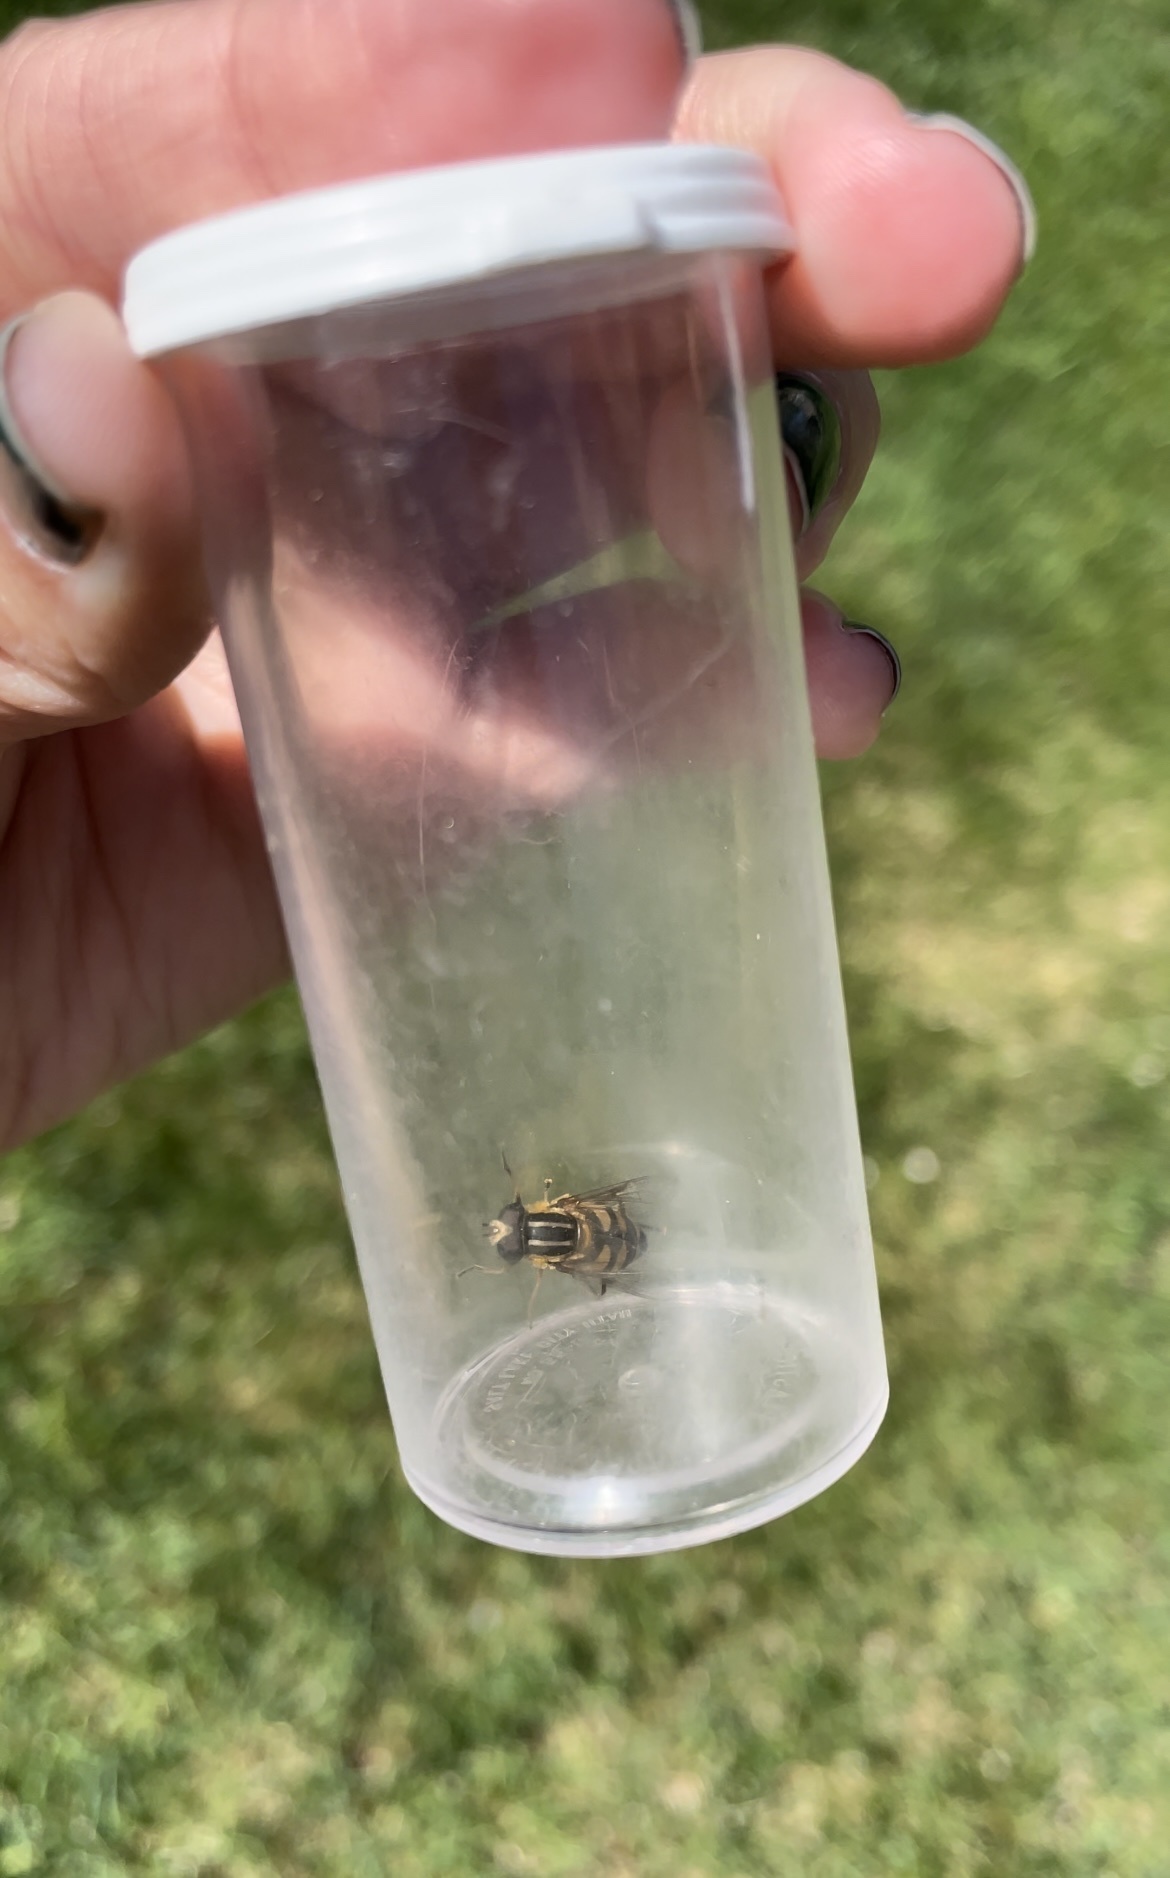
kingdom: Animalia
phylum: Arthropoda
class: Insecta
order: Diptera
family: Syrphidae
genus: Helophilus
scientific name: Helophilus fasciatus
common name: Narrow-headed marsh fly
